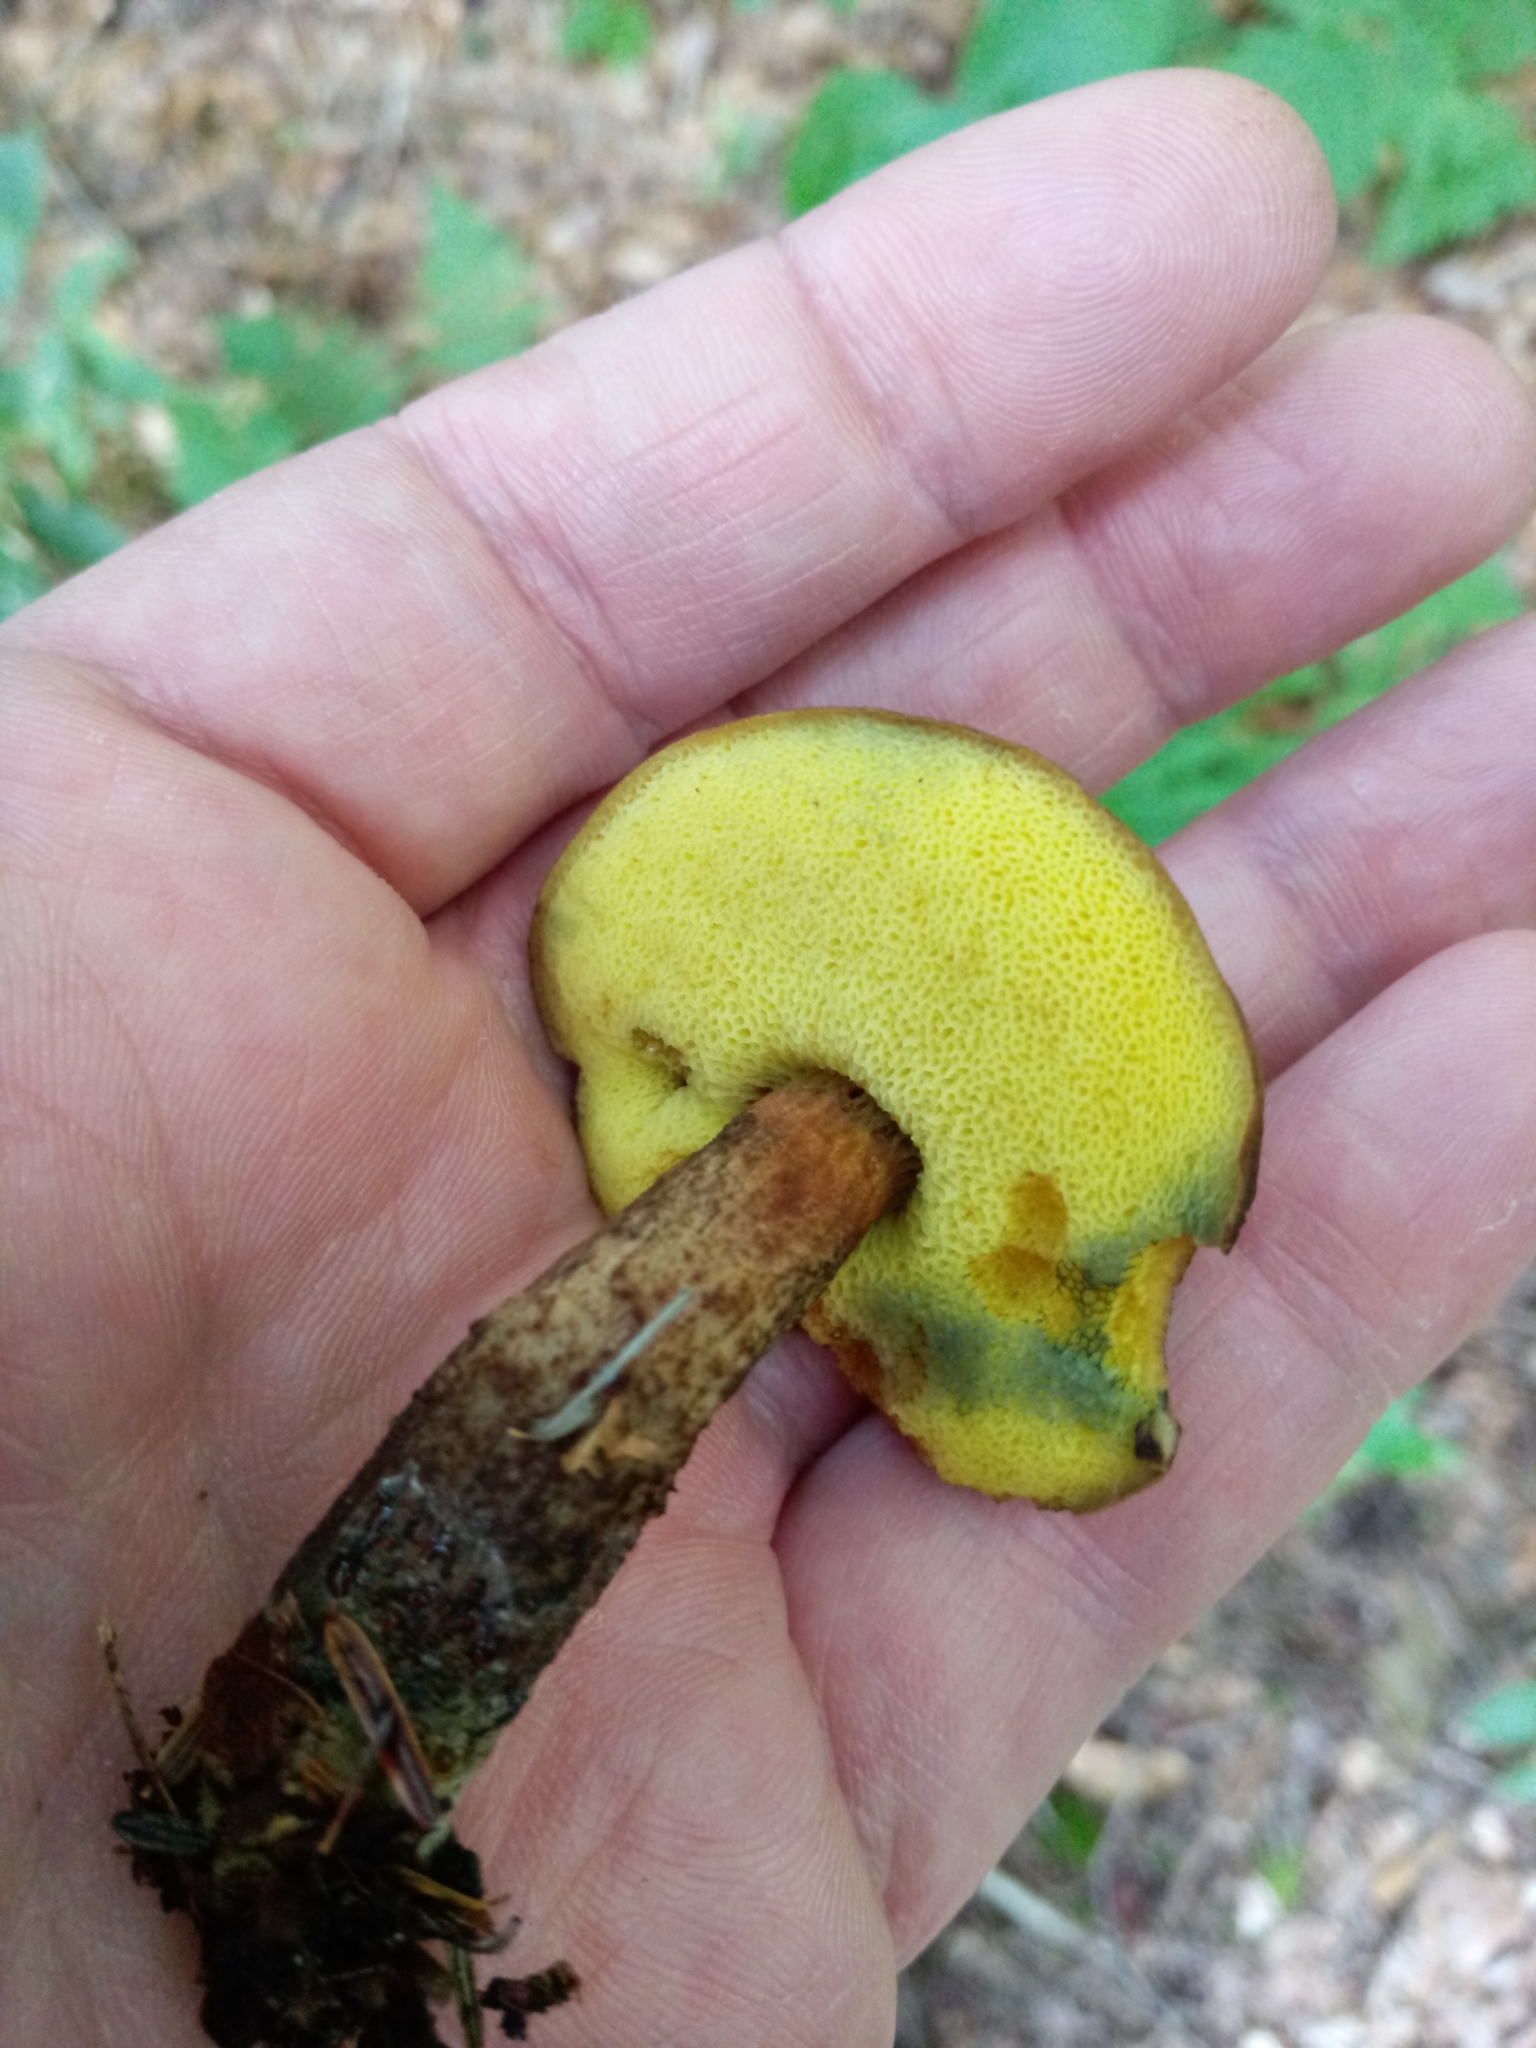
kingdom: Fungi
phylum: Basidiomycota
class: Agaricomycetes
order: Boletales
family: Boletaceae
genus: Boletellus
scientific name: Boletellus chrysenteroides
